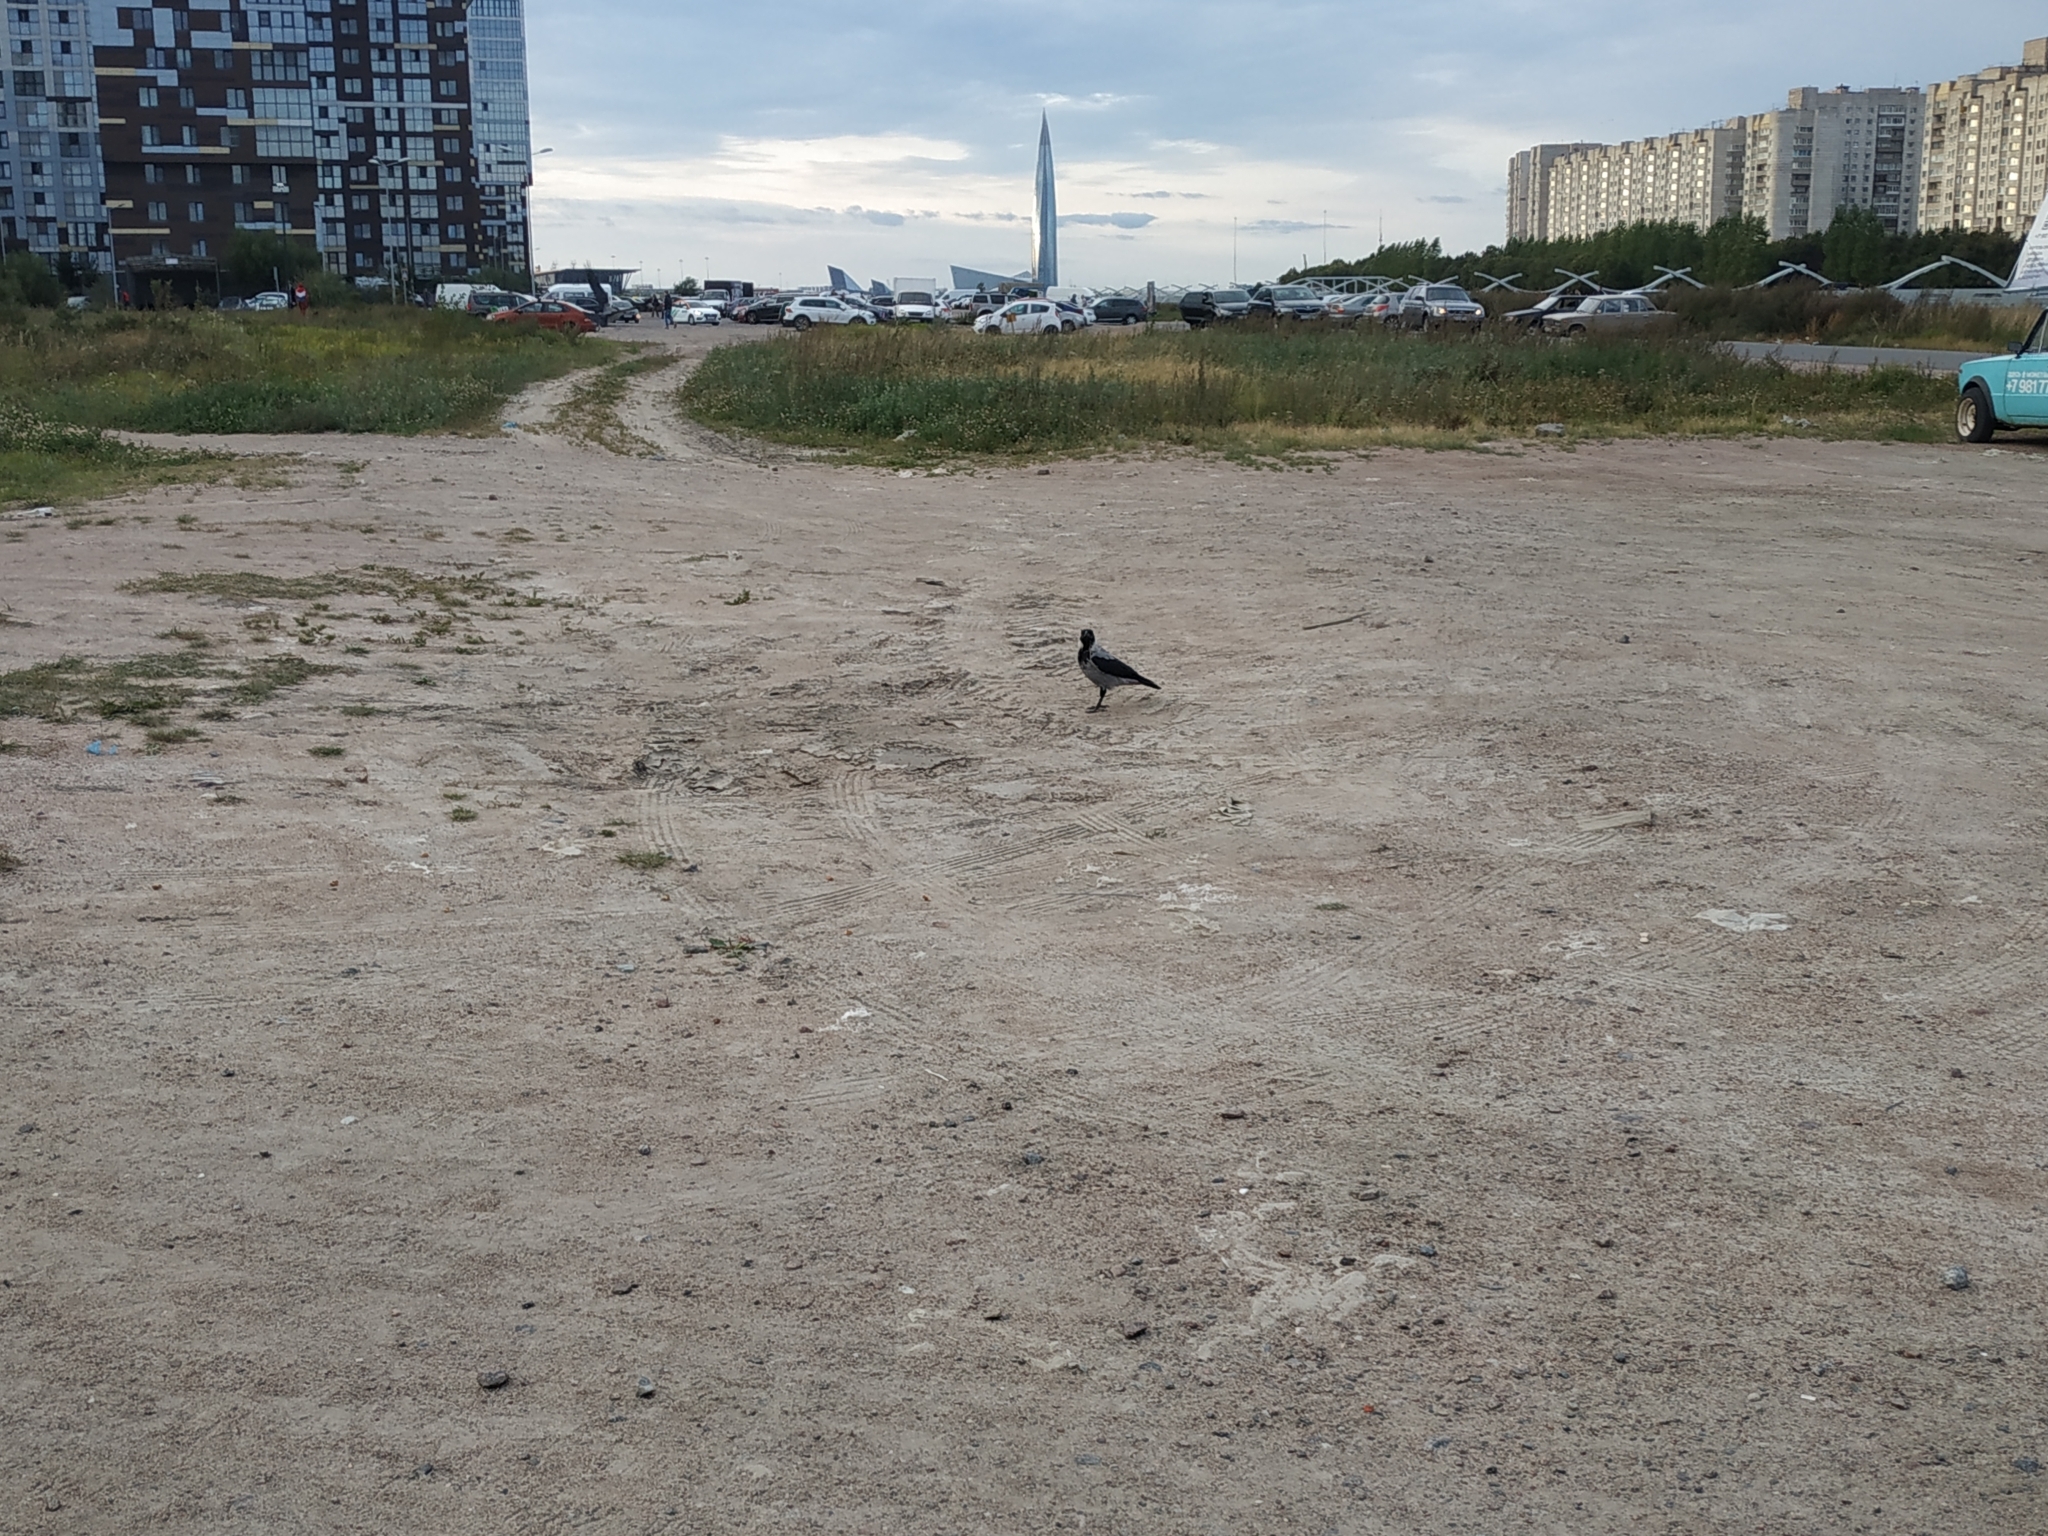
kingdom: Animalia
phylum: Chordata
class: Aves
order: Passeriformes
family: Corvidae
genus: Corvus
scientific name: Corvus cornix
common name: Hooded crow
